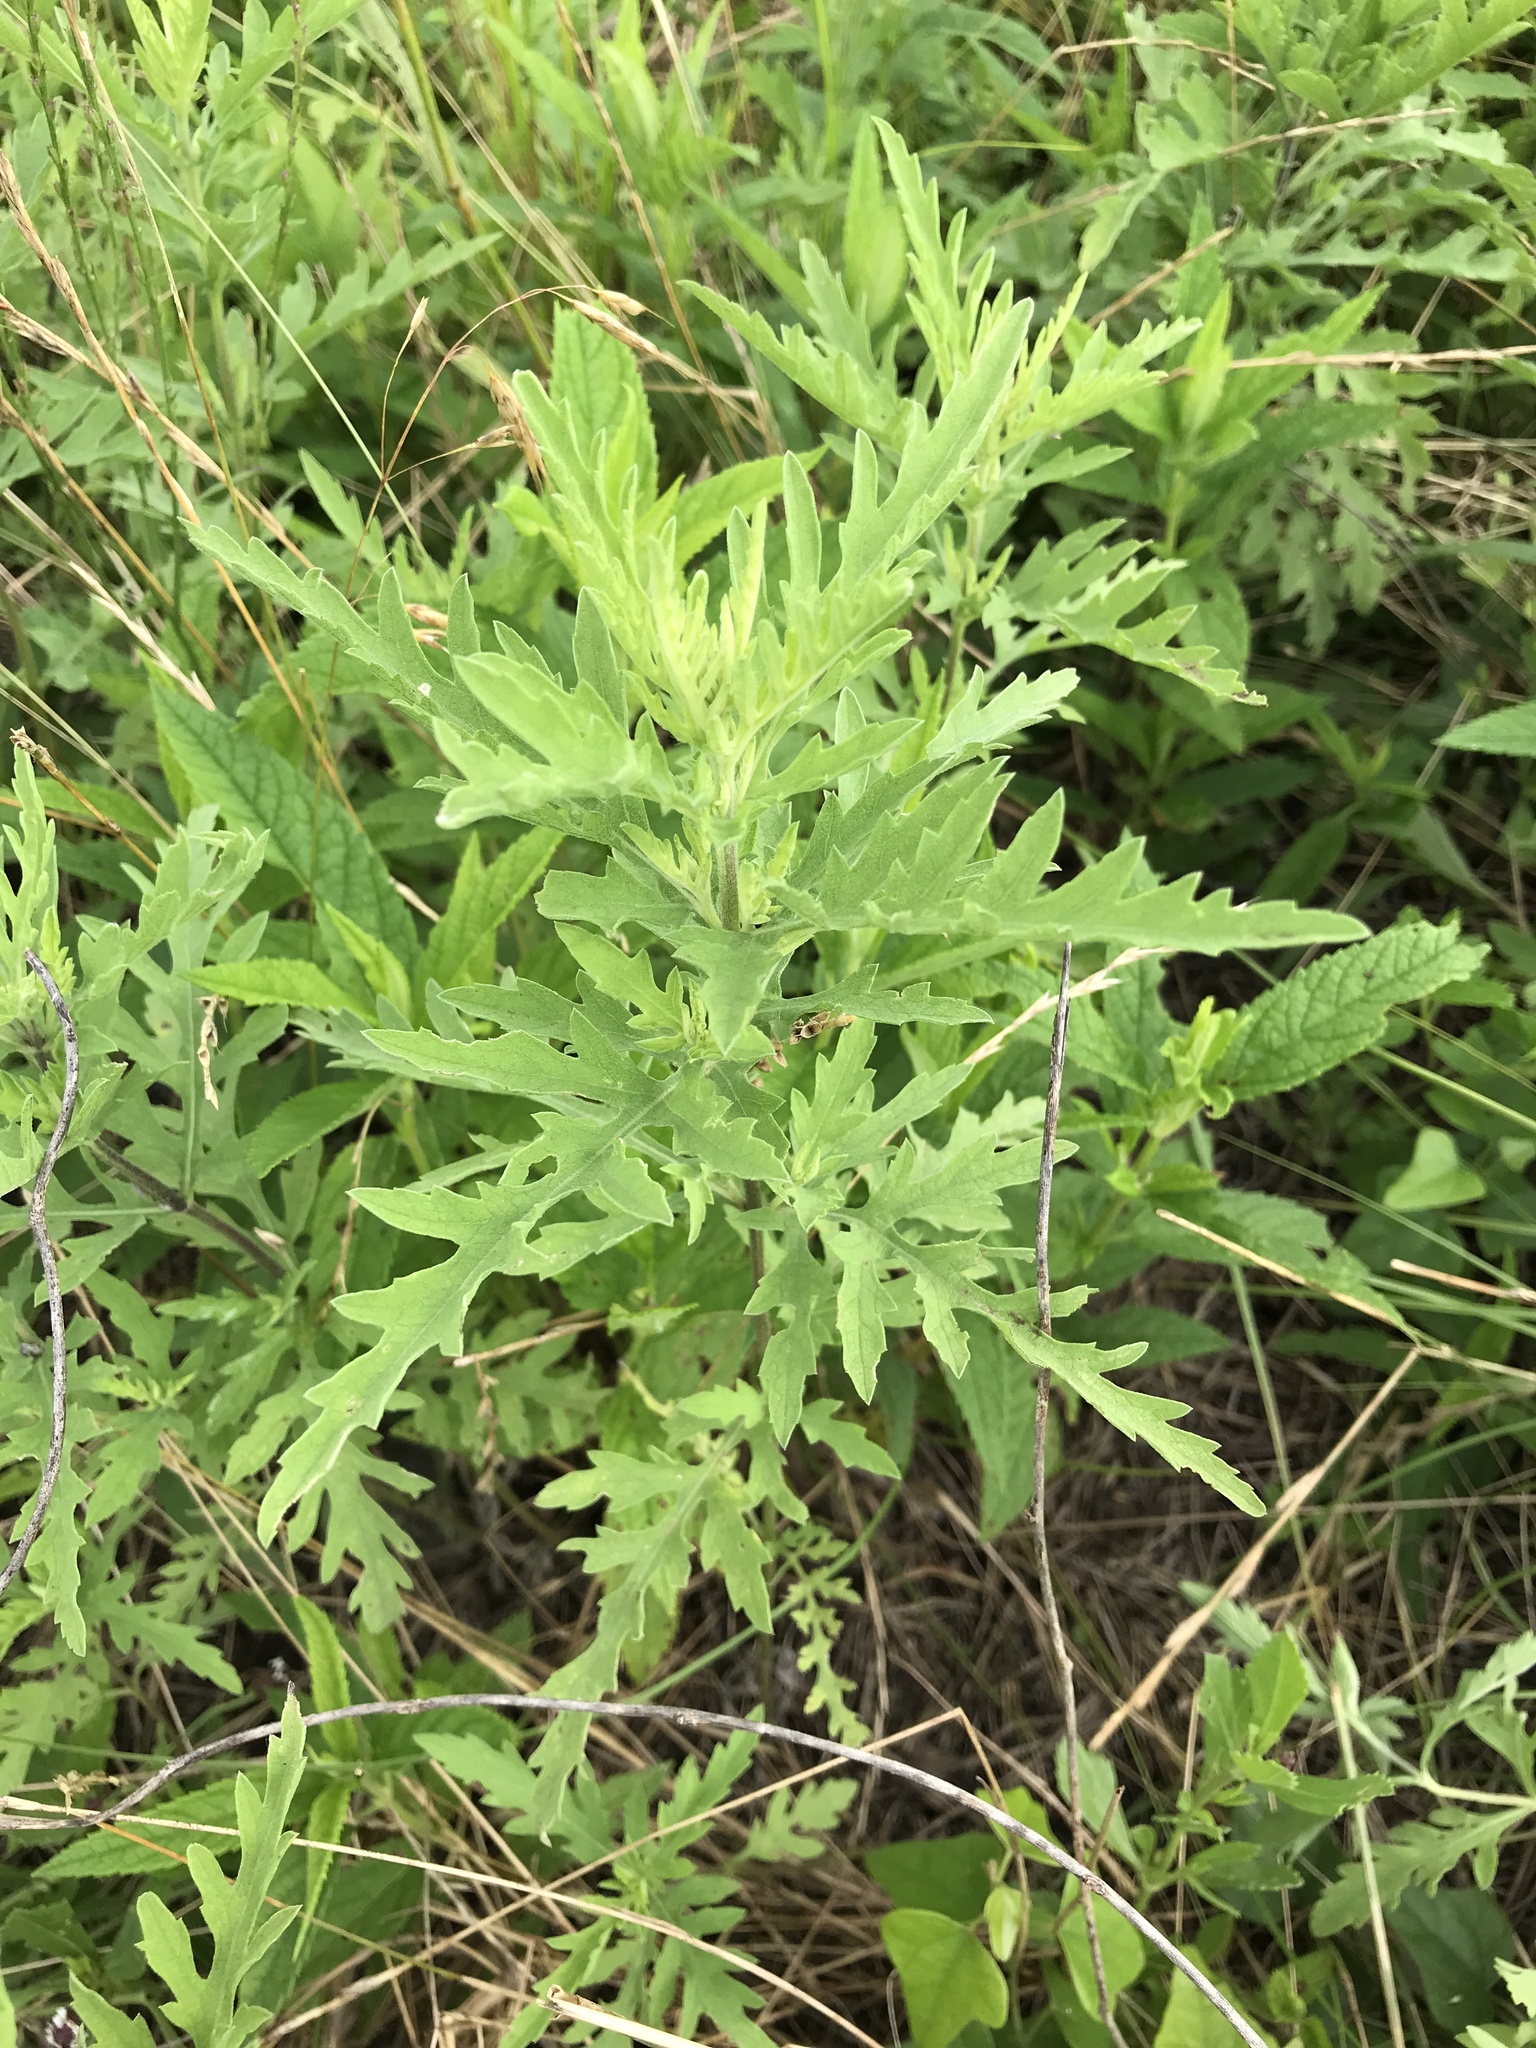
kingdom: Plantae
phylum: Tracheophyta
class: Magnoliopsida
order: Asterales
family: Asteraceae
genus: Ambrosia
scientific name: Ambrosia psilostachya
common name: Perennial ragweed
